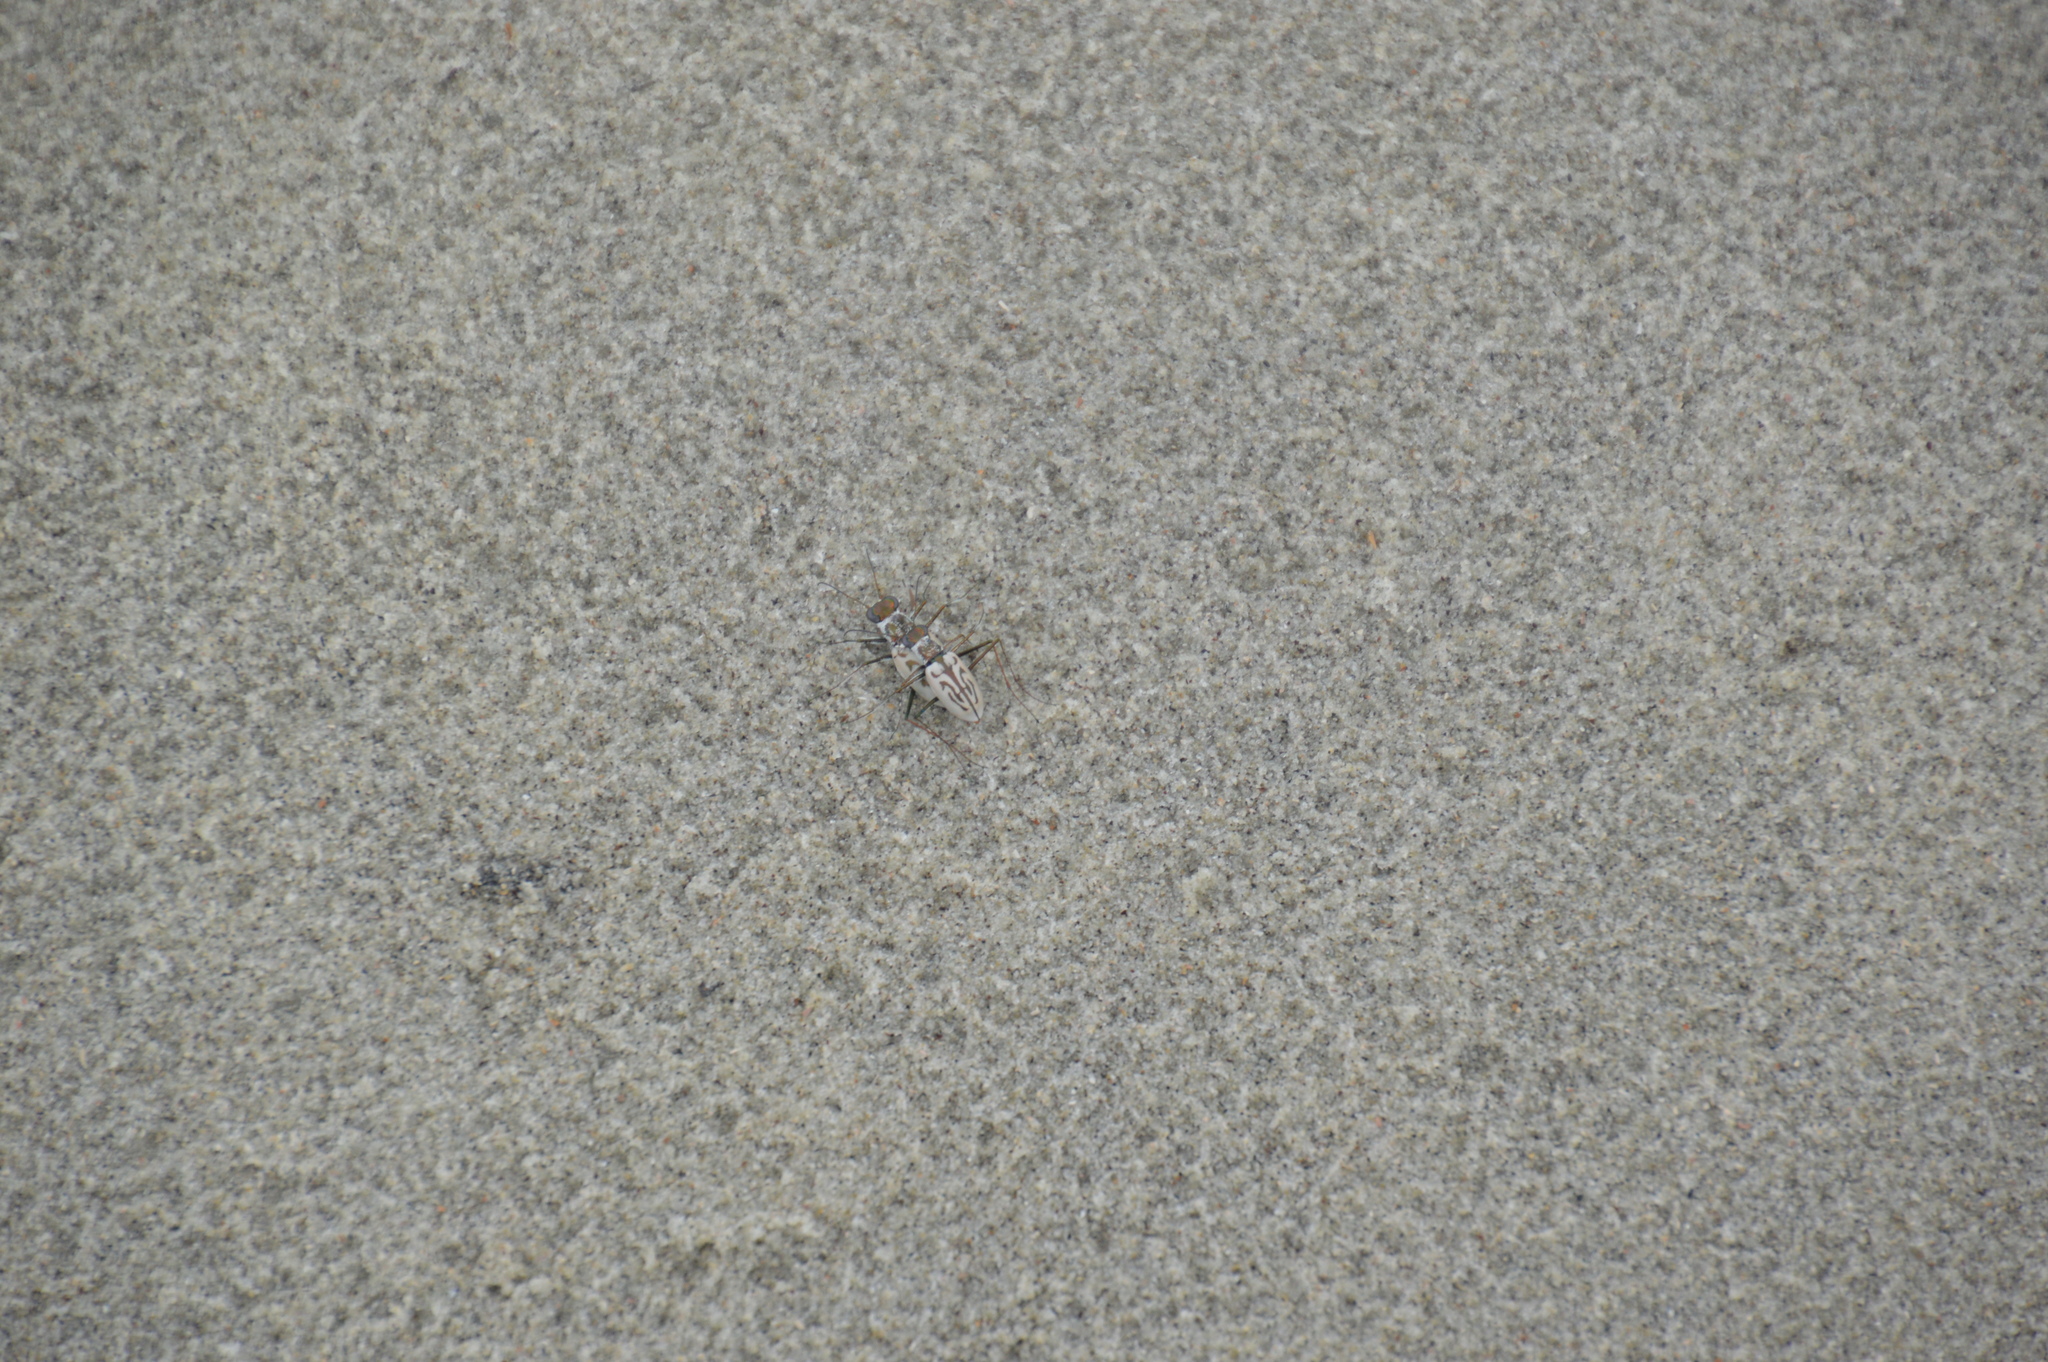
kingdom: Animalia
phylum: Arthropoda
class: Insecta
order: Coleoptera
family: Carabidae
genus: Habroscelimorpha
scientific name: Habroscelimorpha dorsalis
